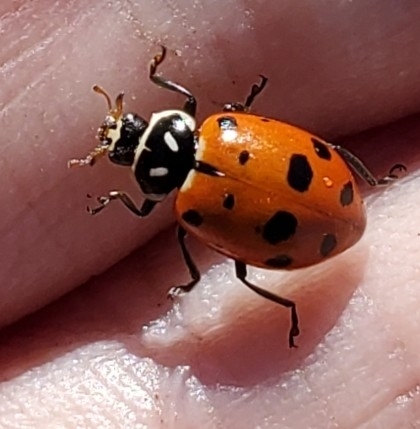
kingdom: Animalia
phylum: Arthropoda
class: Insecta
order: Coleoptera
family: Coccinellidae
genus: Hippodamia
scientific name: Hippodamia convergens
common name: Convergent lady beetle
